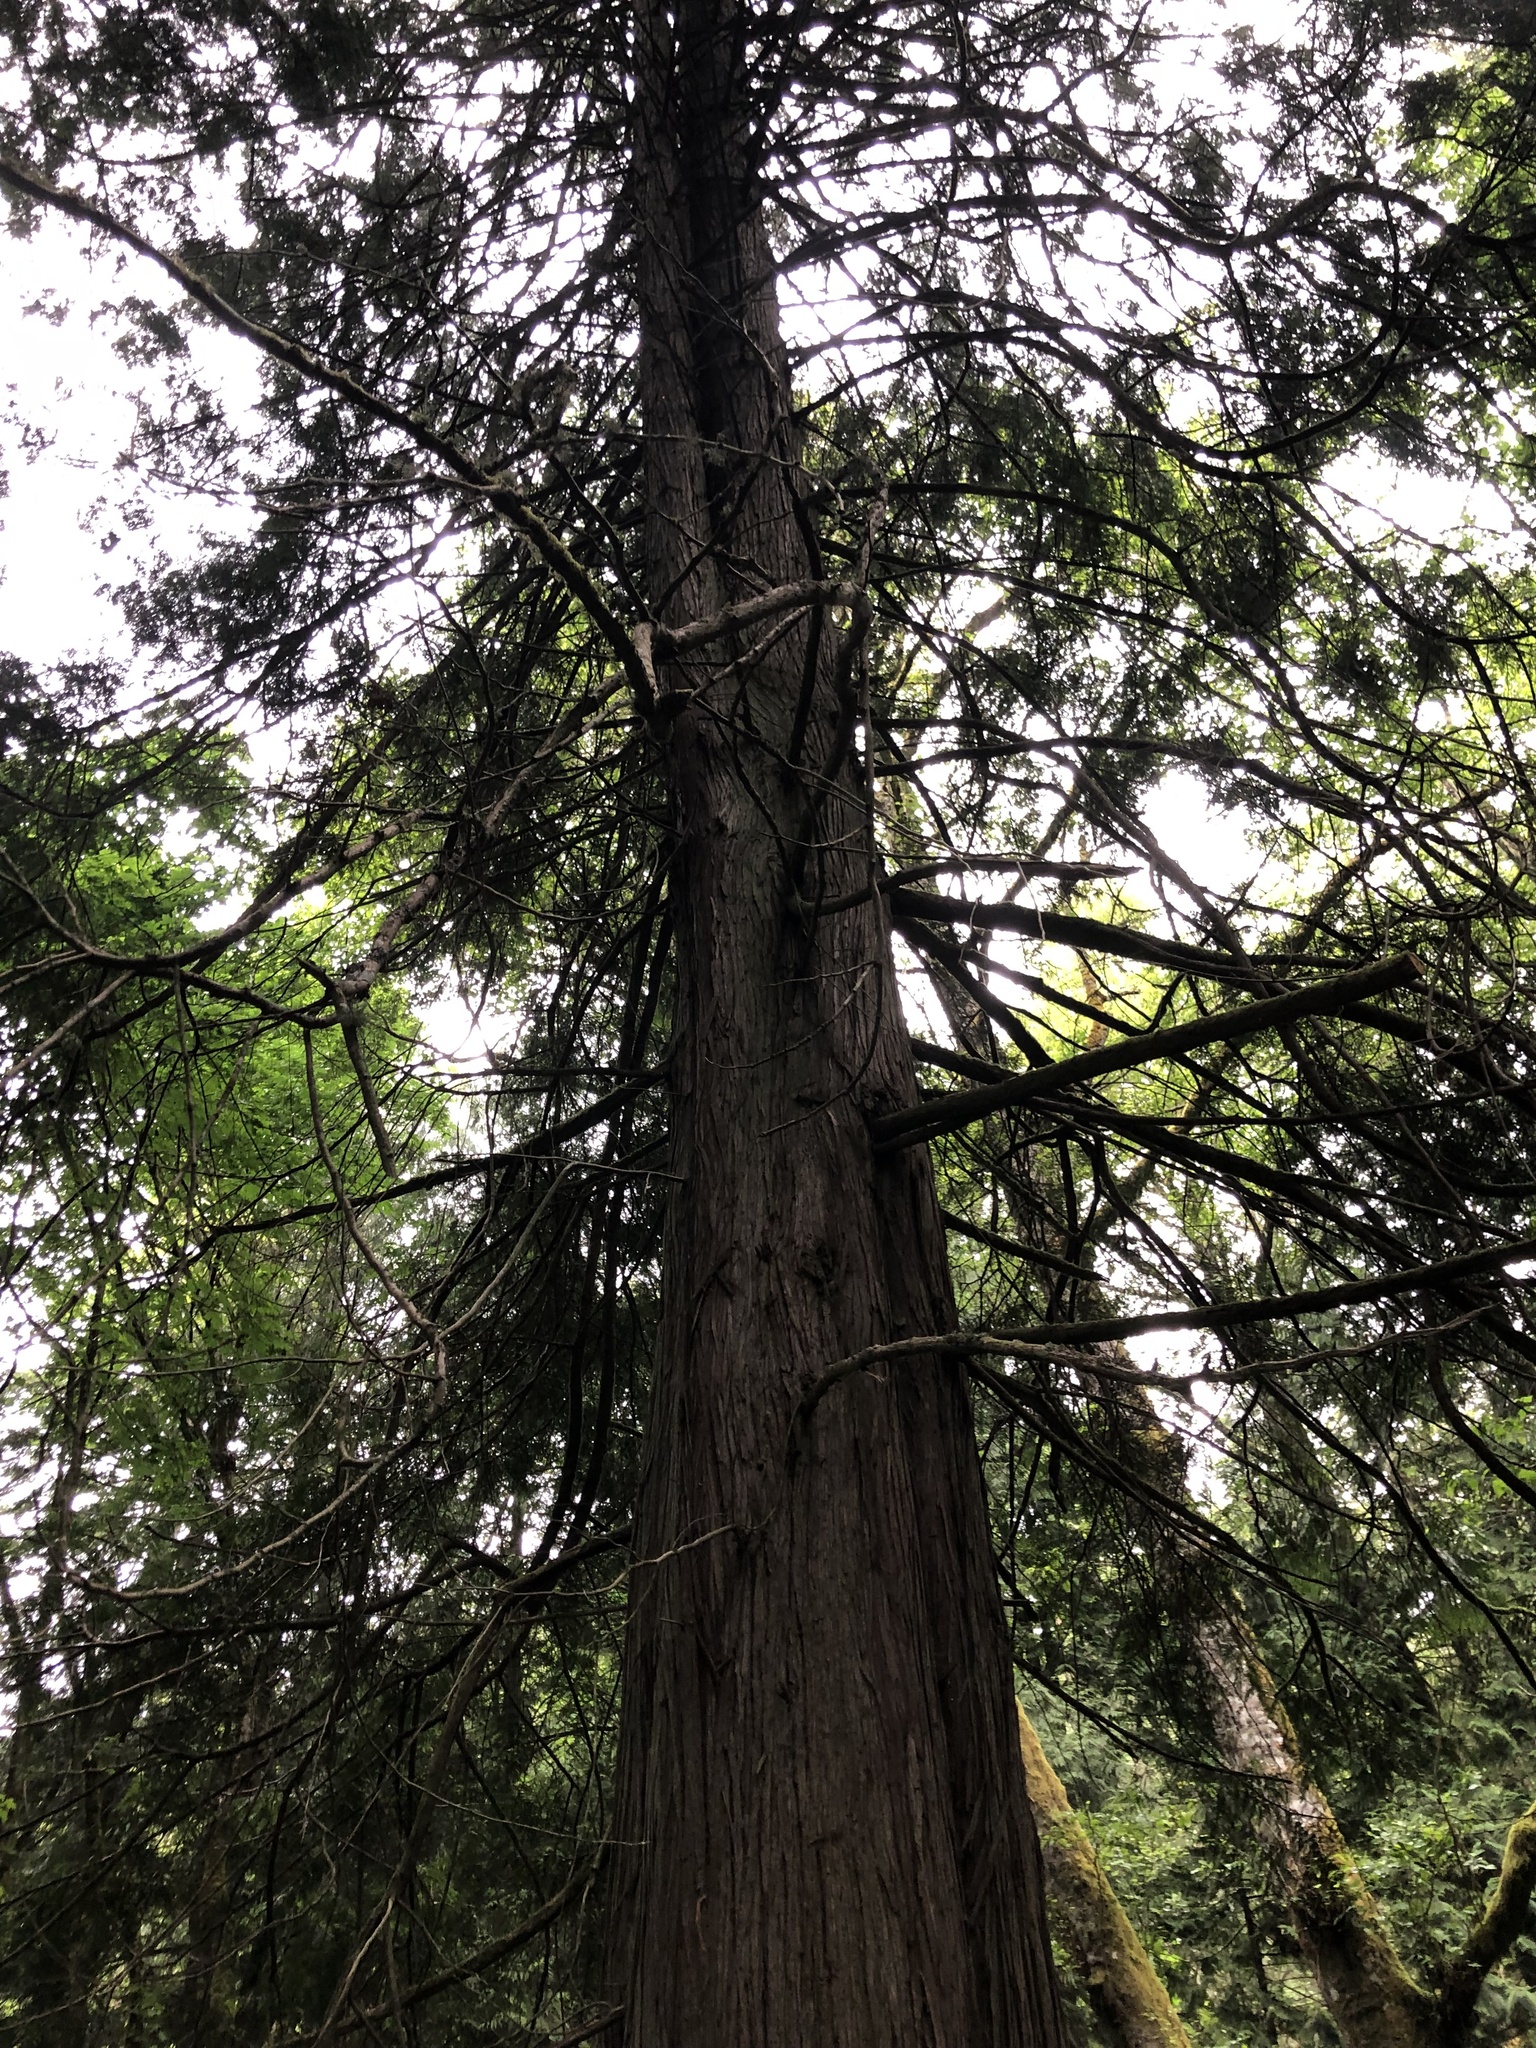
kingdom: Plantae
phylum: Tracheophyta
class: Pinopsida
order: Pinales
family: Cupressaceae
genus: Thuja
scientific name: Thuja plicata
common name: Western red-cedar
